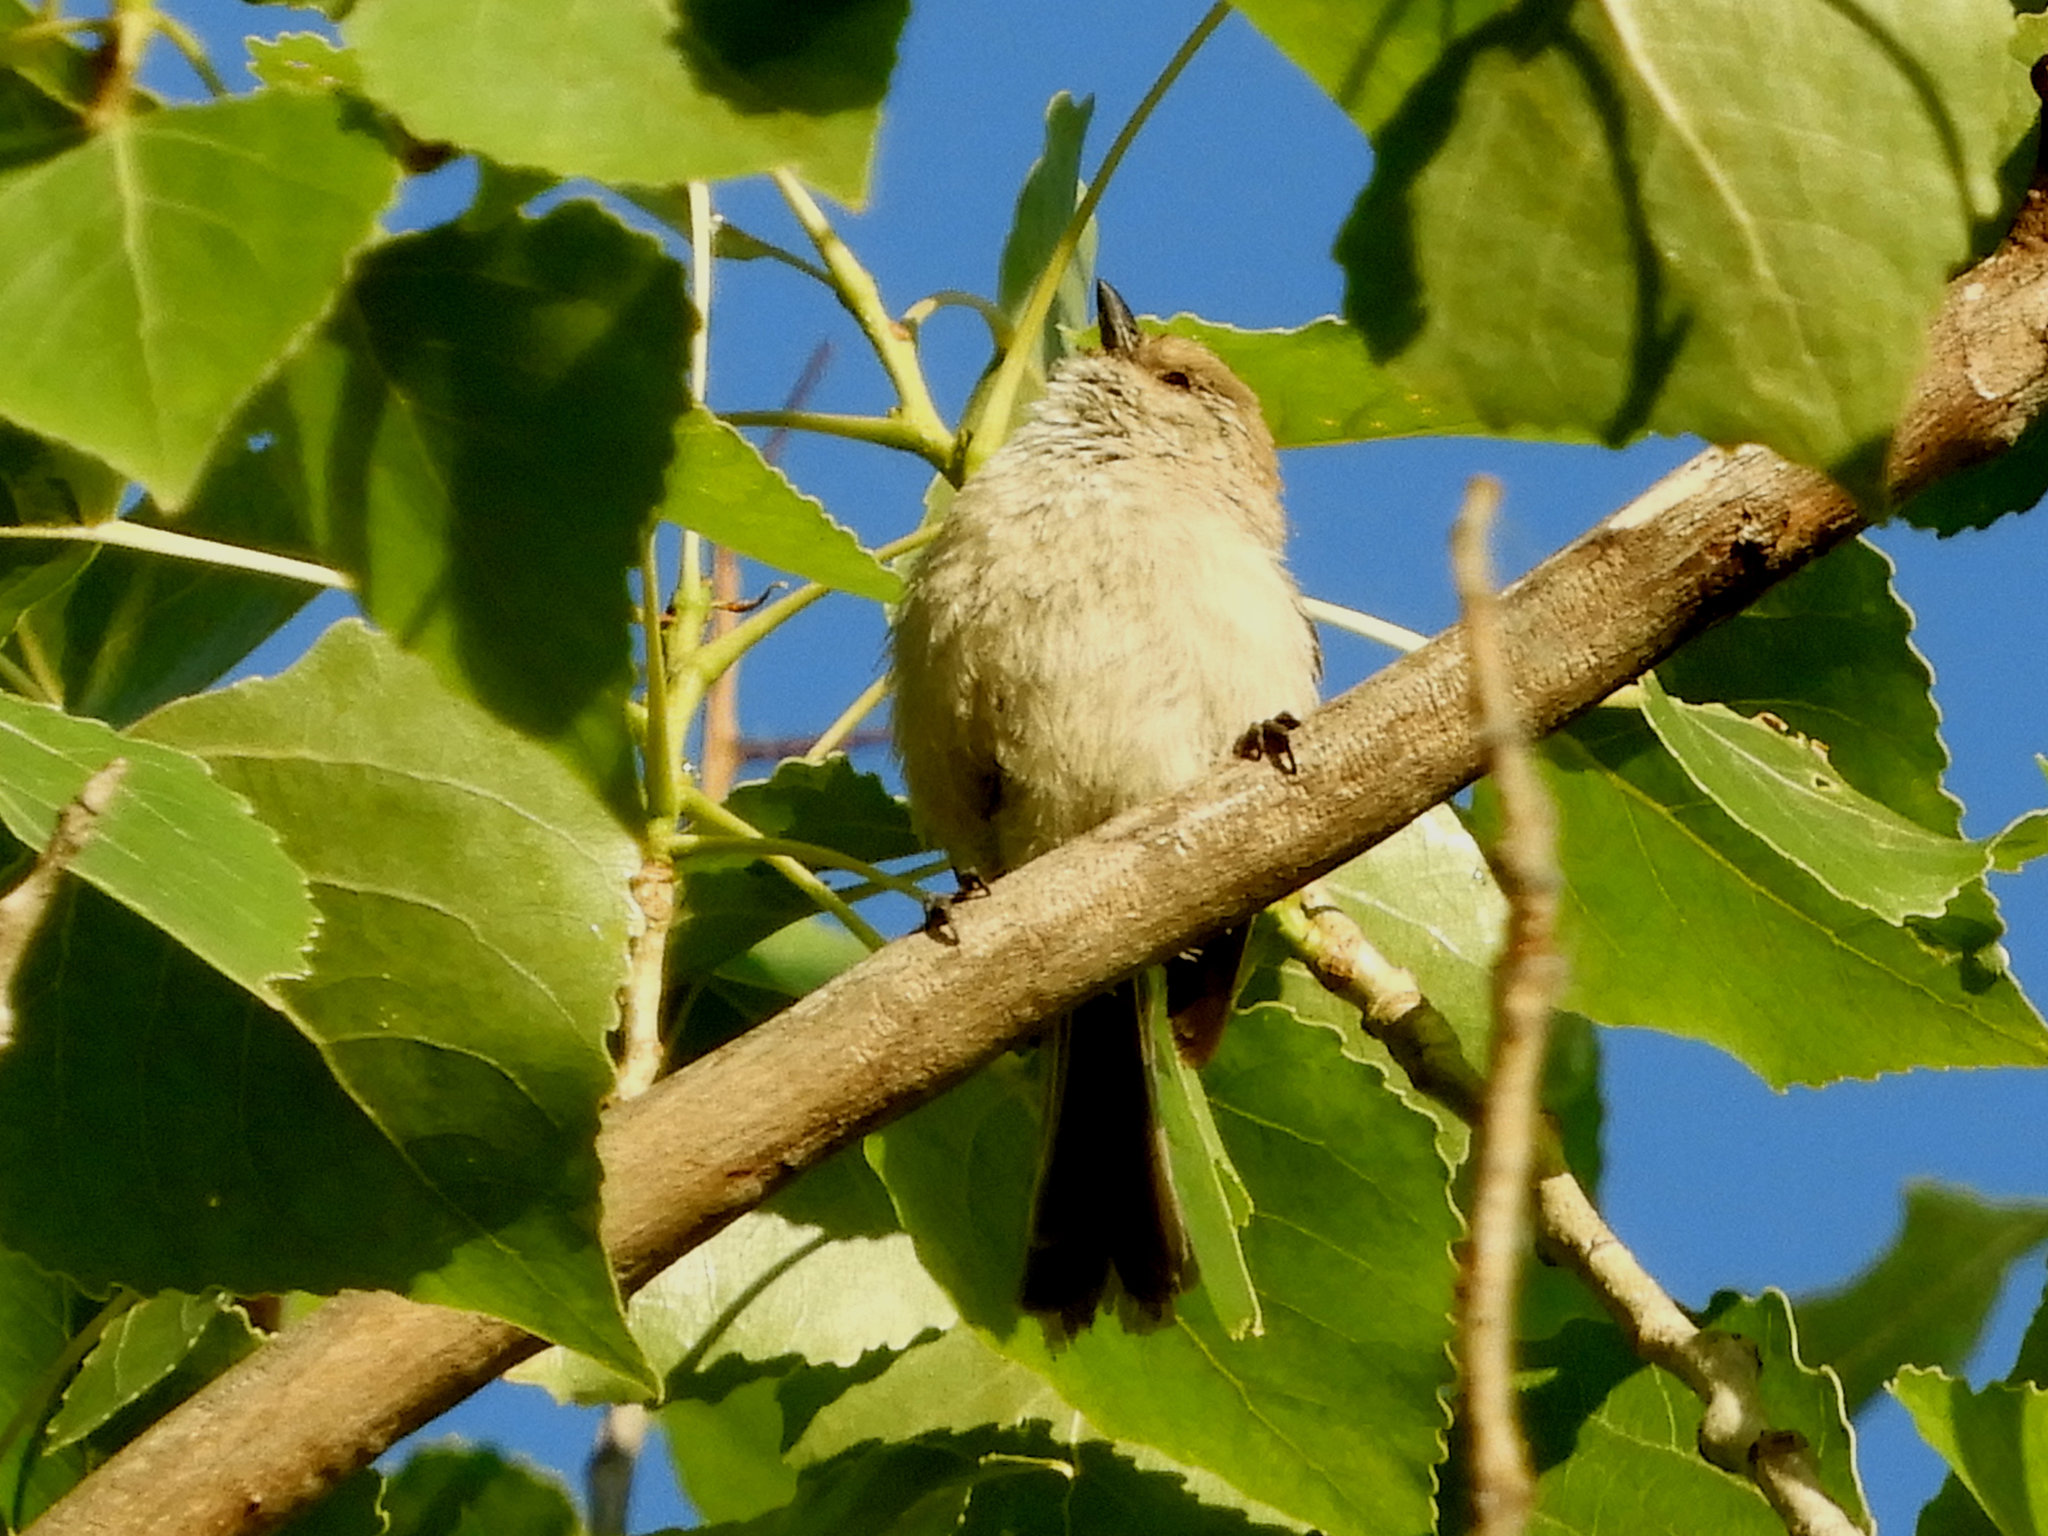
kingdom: Animalia
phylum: Chordata
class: Aves
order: Passeriformes
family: Aegithalidae
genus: Psaltriparus
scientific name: Psaltriparus minimus
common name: American bushtit
